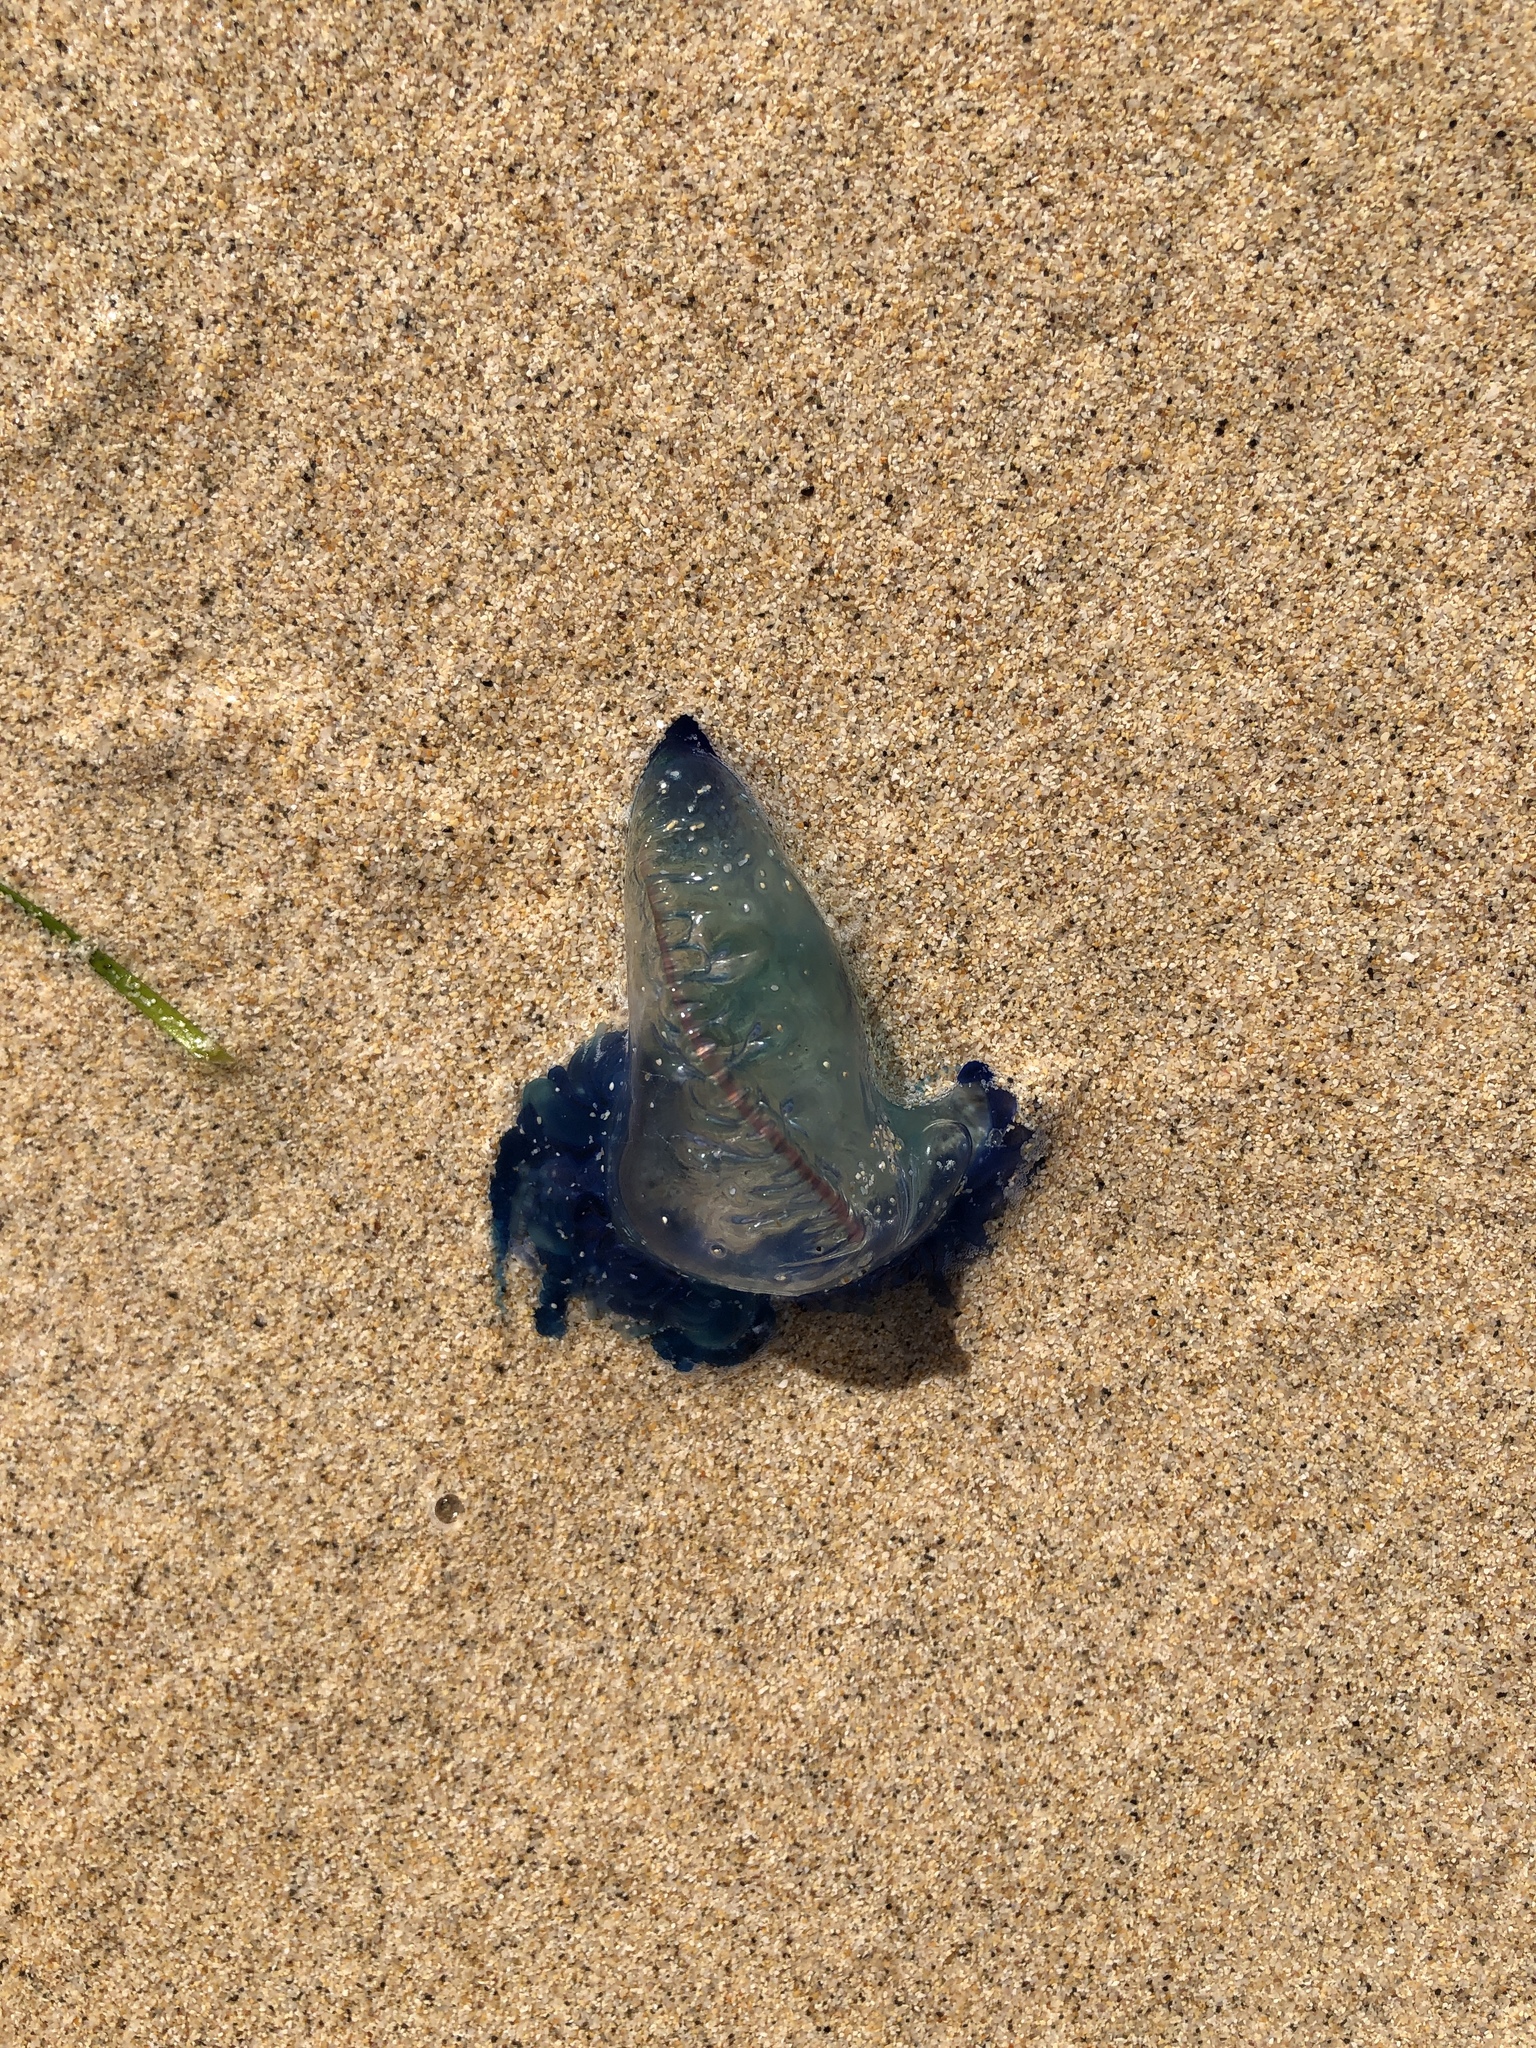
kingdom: Animalia
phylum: Cnidaria
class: Hydrozoa
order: Siphonophorae
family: Physaliidae
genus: Physalia
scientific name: Physalia physalis
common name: Portuguese man-of-war
